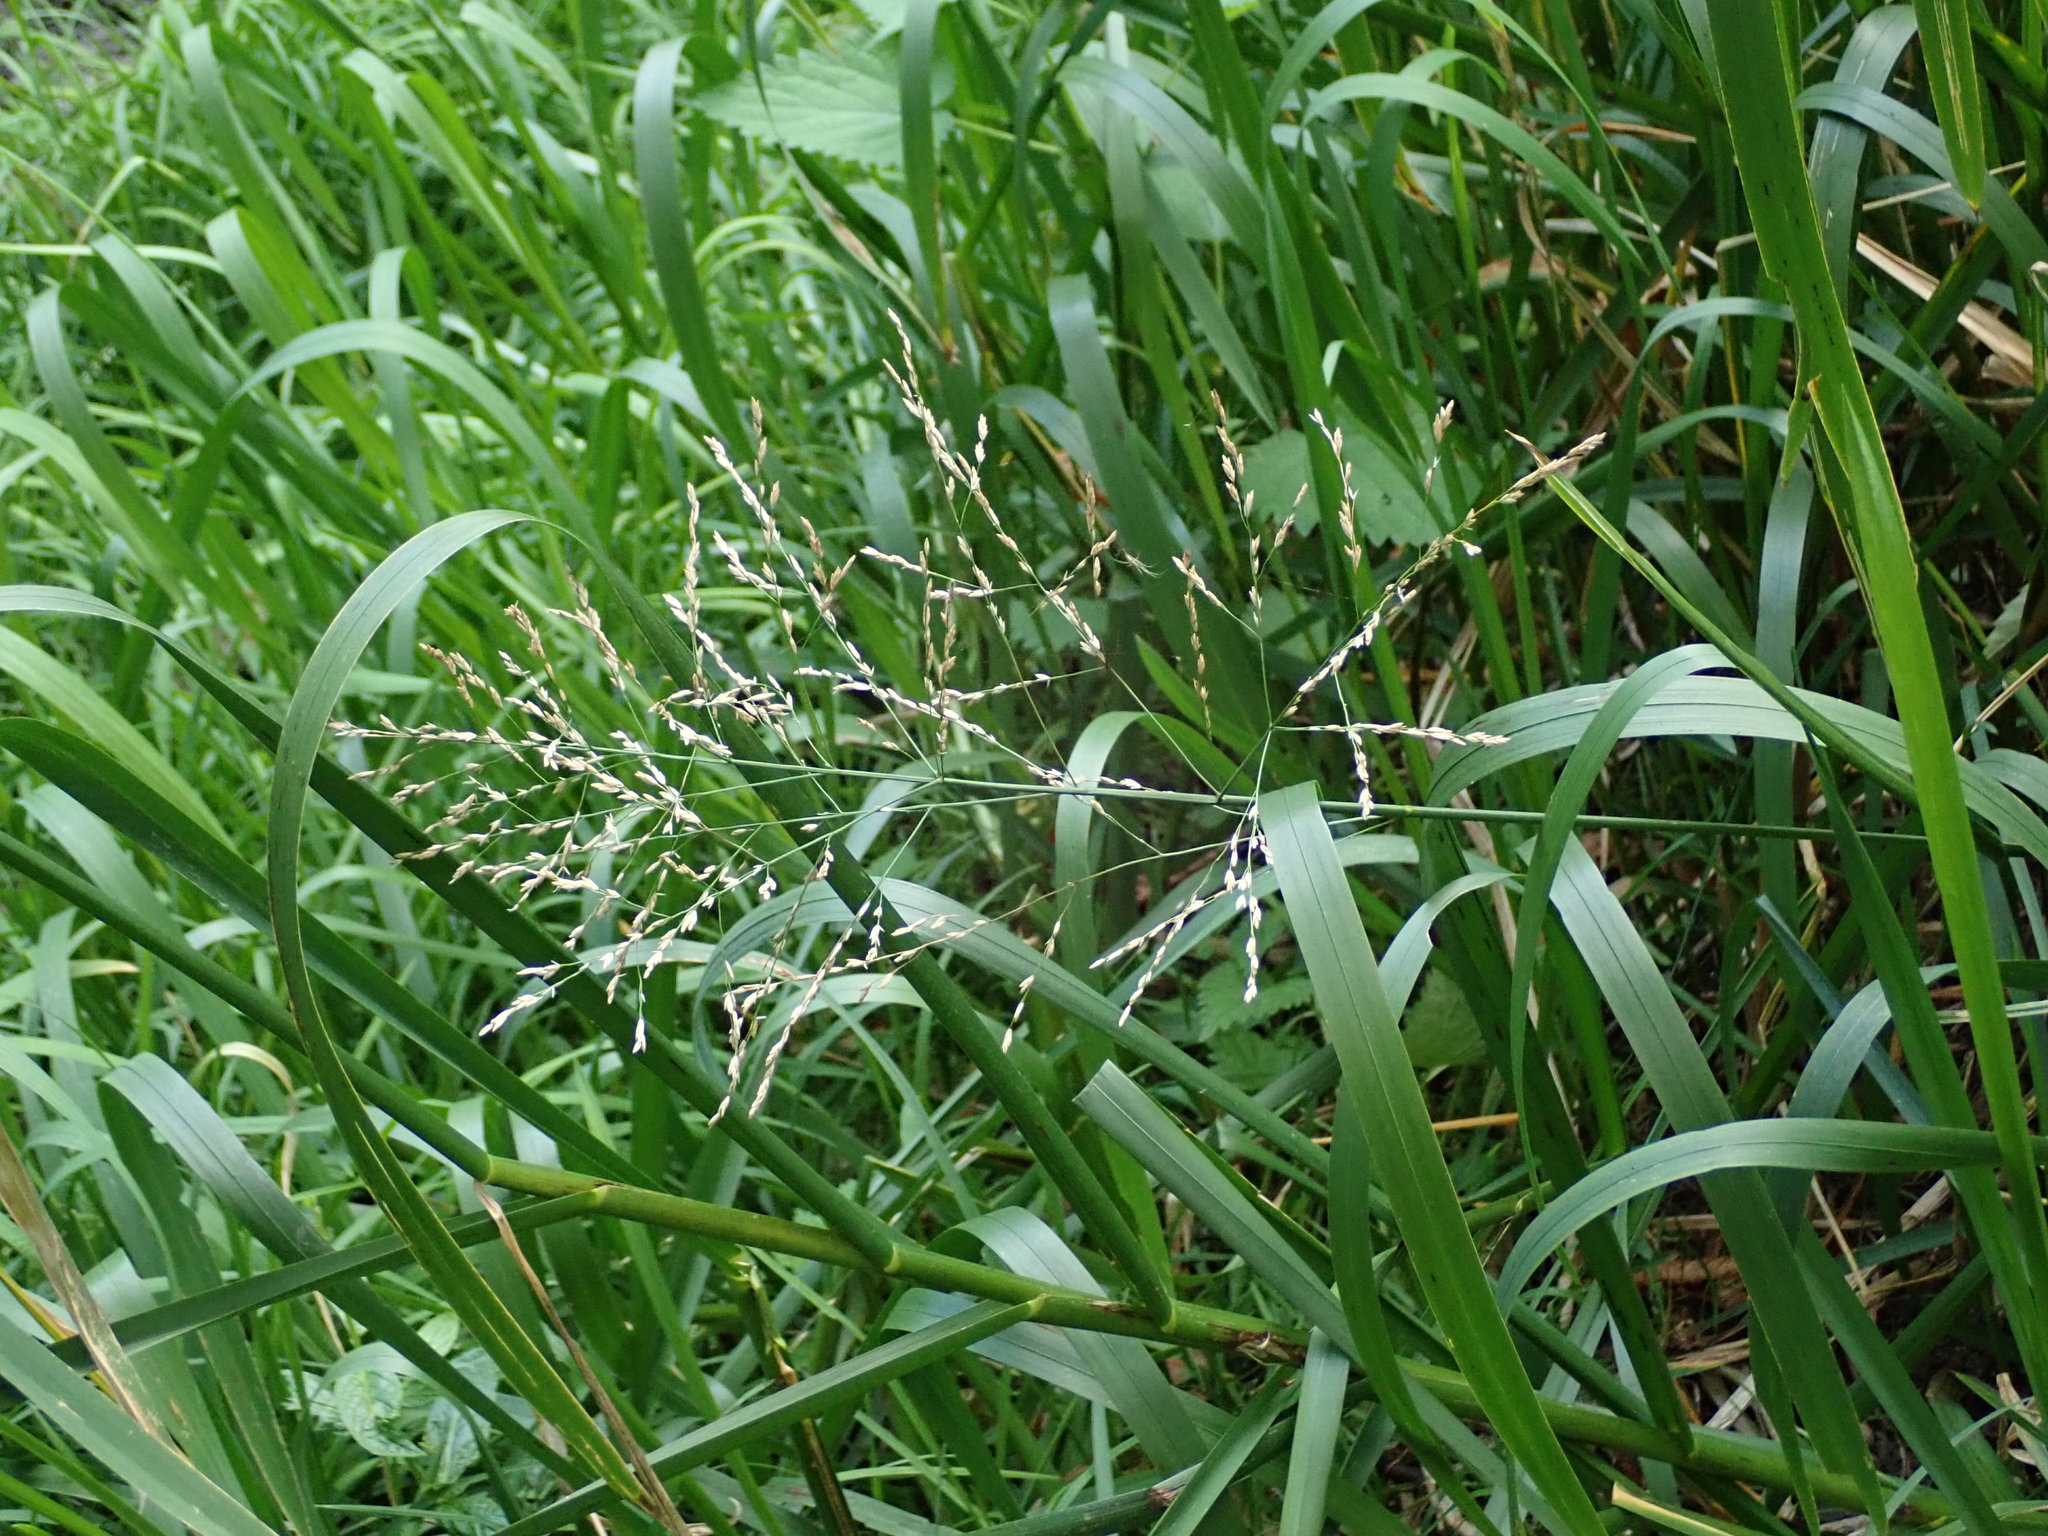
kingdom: Plantae
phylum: Tracheophyta
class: Liliopsida
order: Poales
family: Poaceae
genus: Glyceria
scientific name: Glyceria maxima
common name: Reed mannagrass
